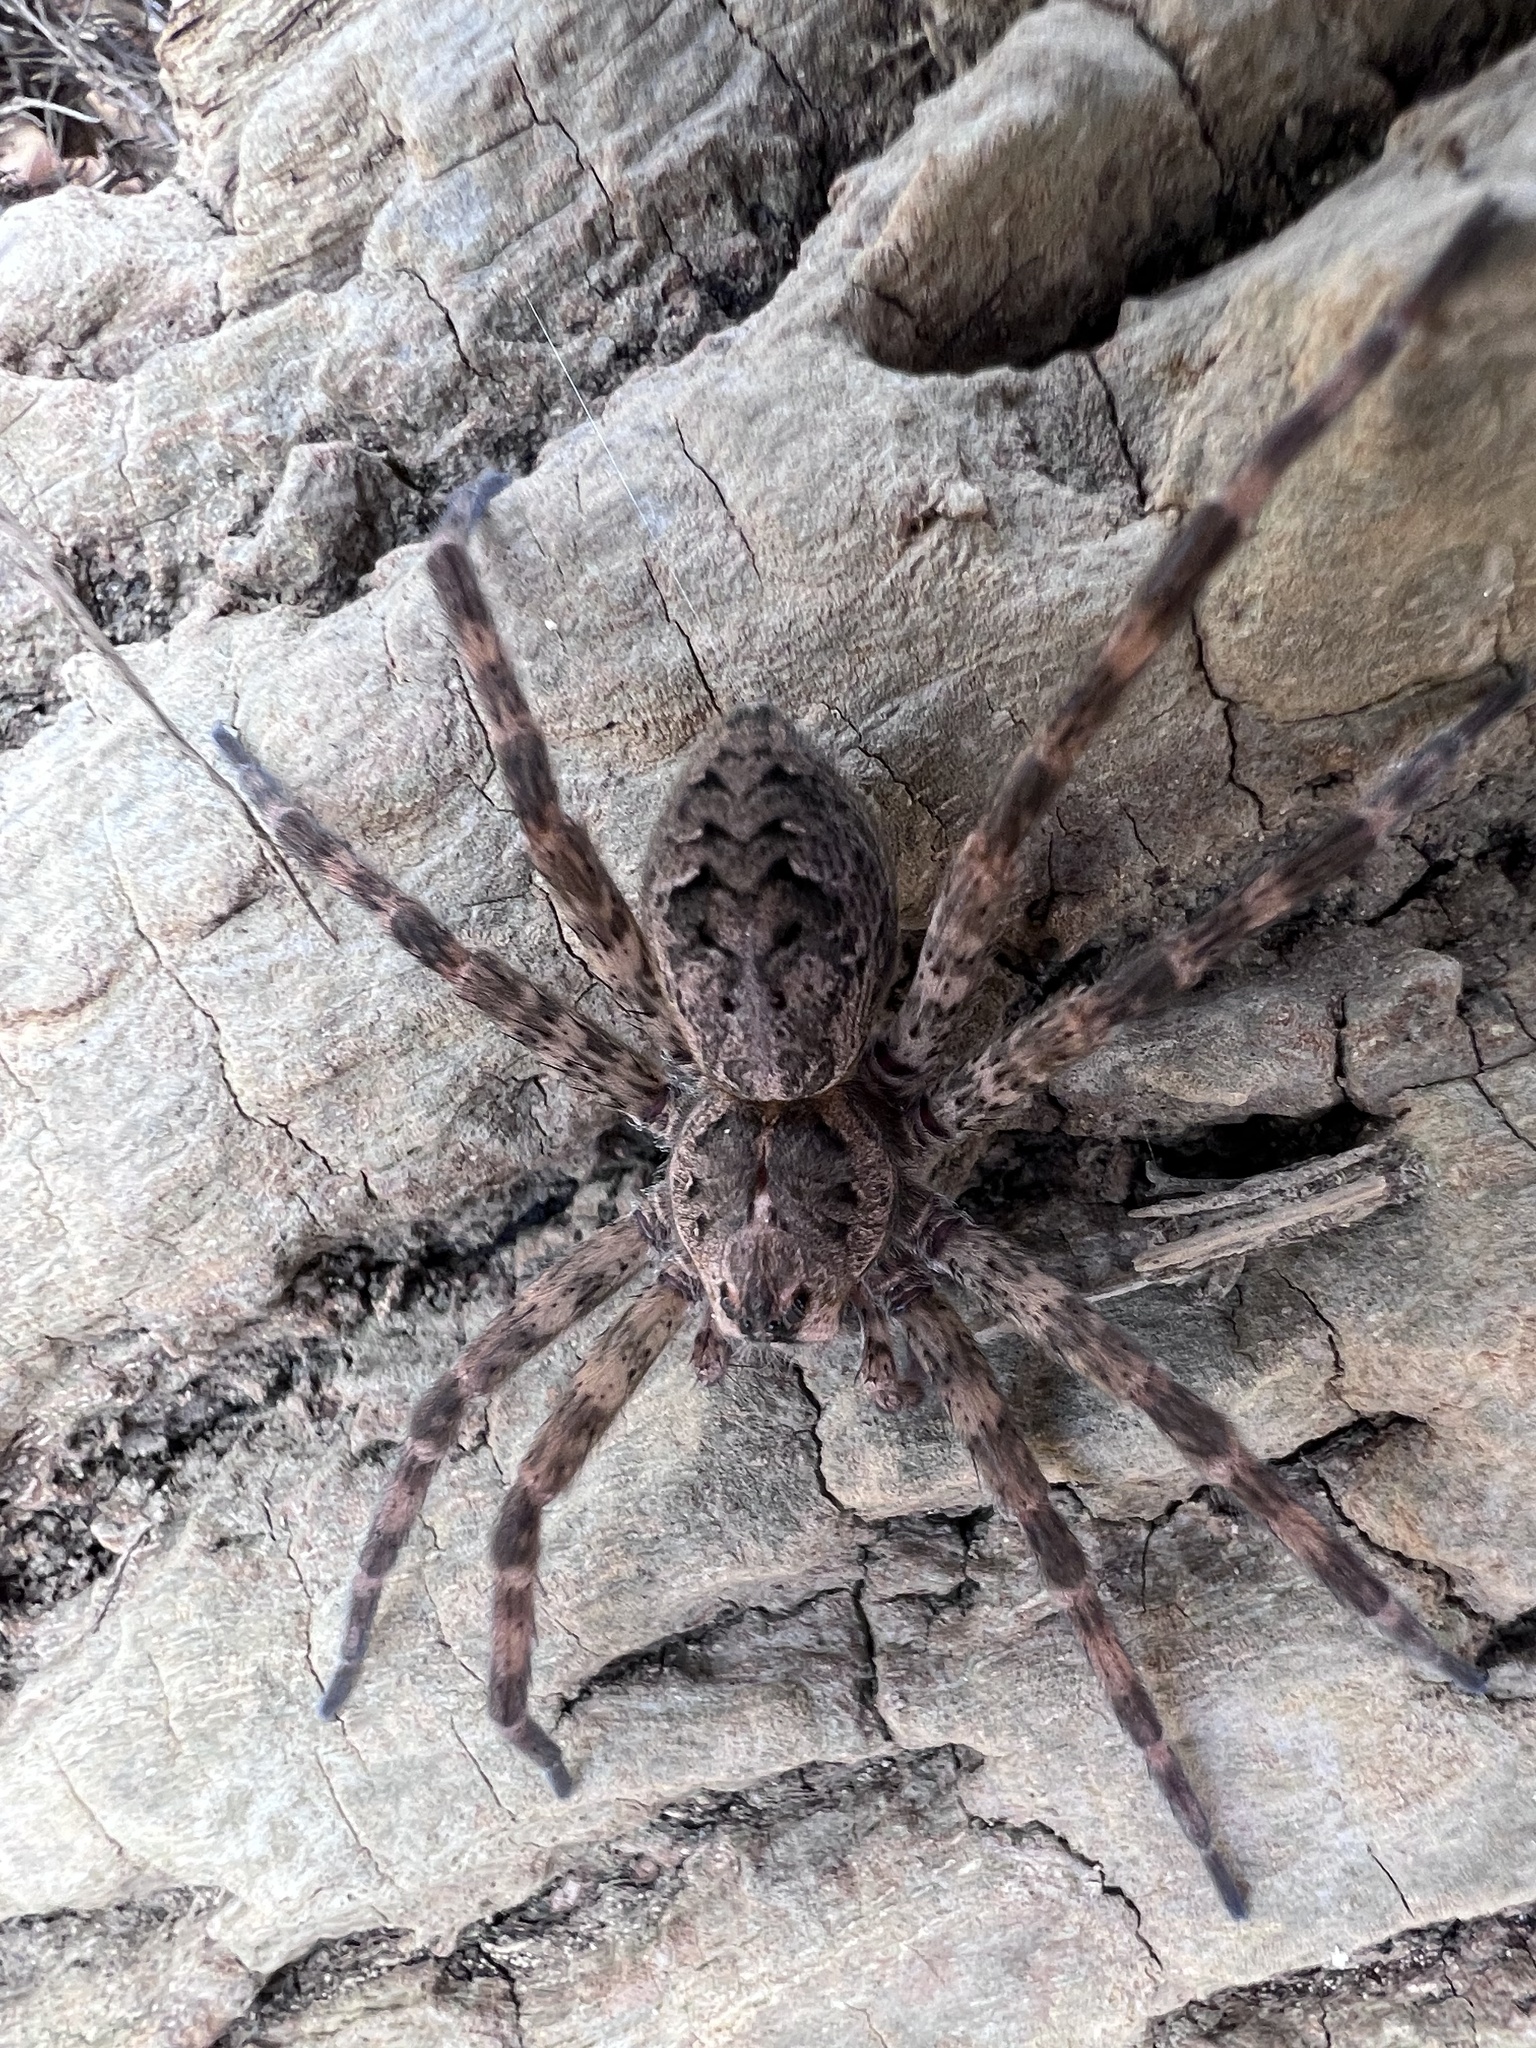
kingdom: Animalia
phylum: Arthropoda
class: Arachnida
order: Araneae
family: Pisauridae
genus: Dolomedes
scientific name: Dolomedes tenebrosus
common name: Dark fishing spider
